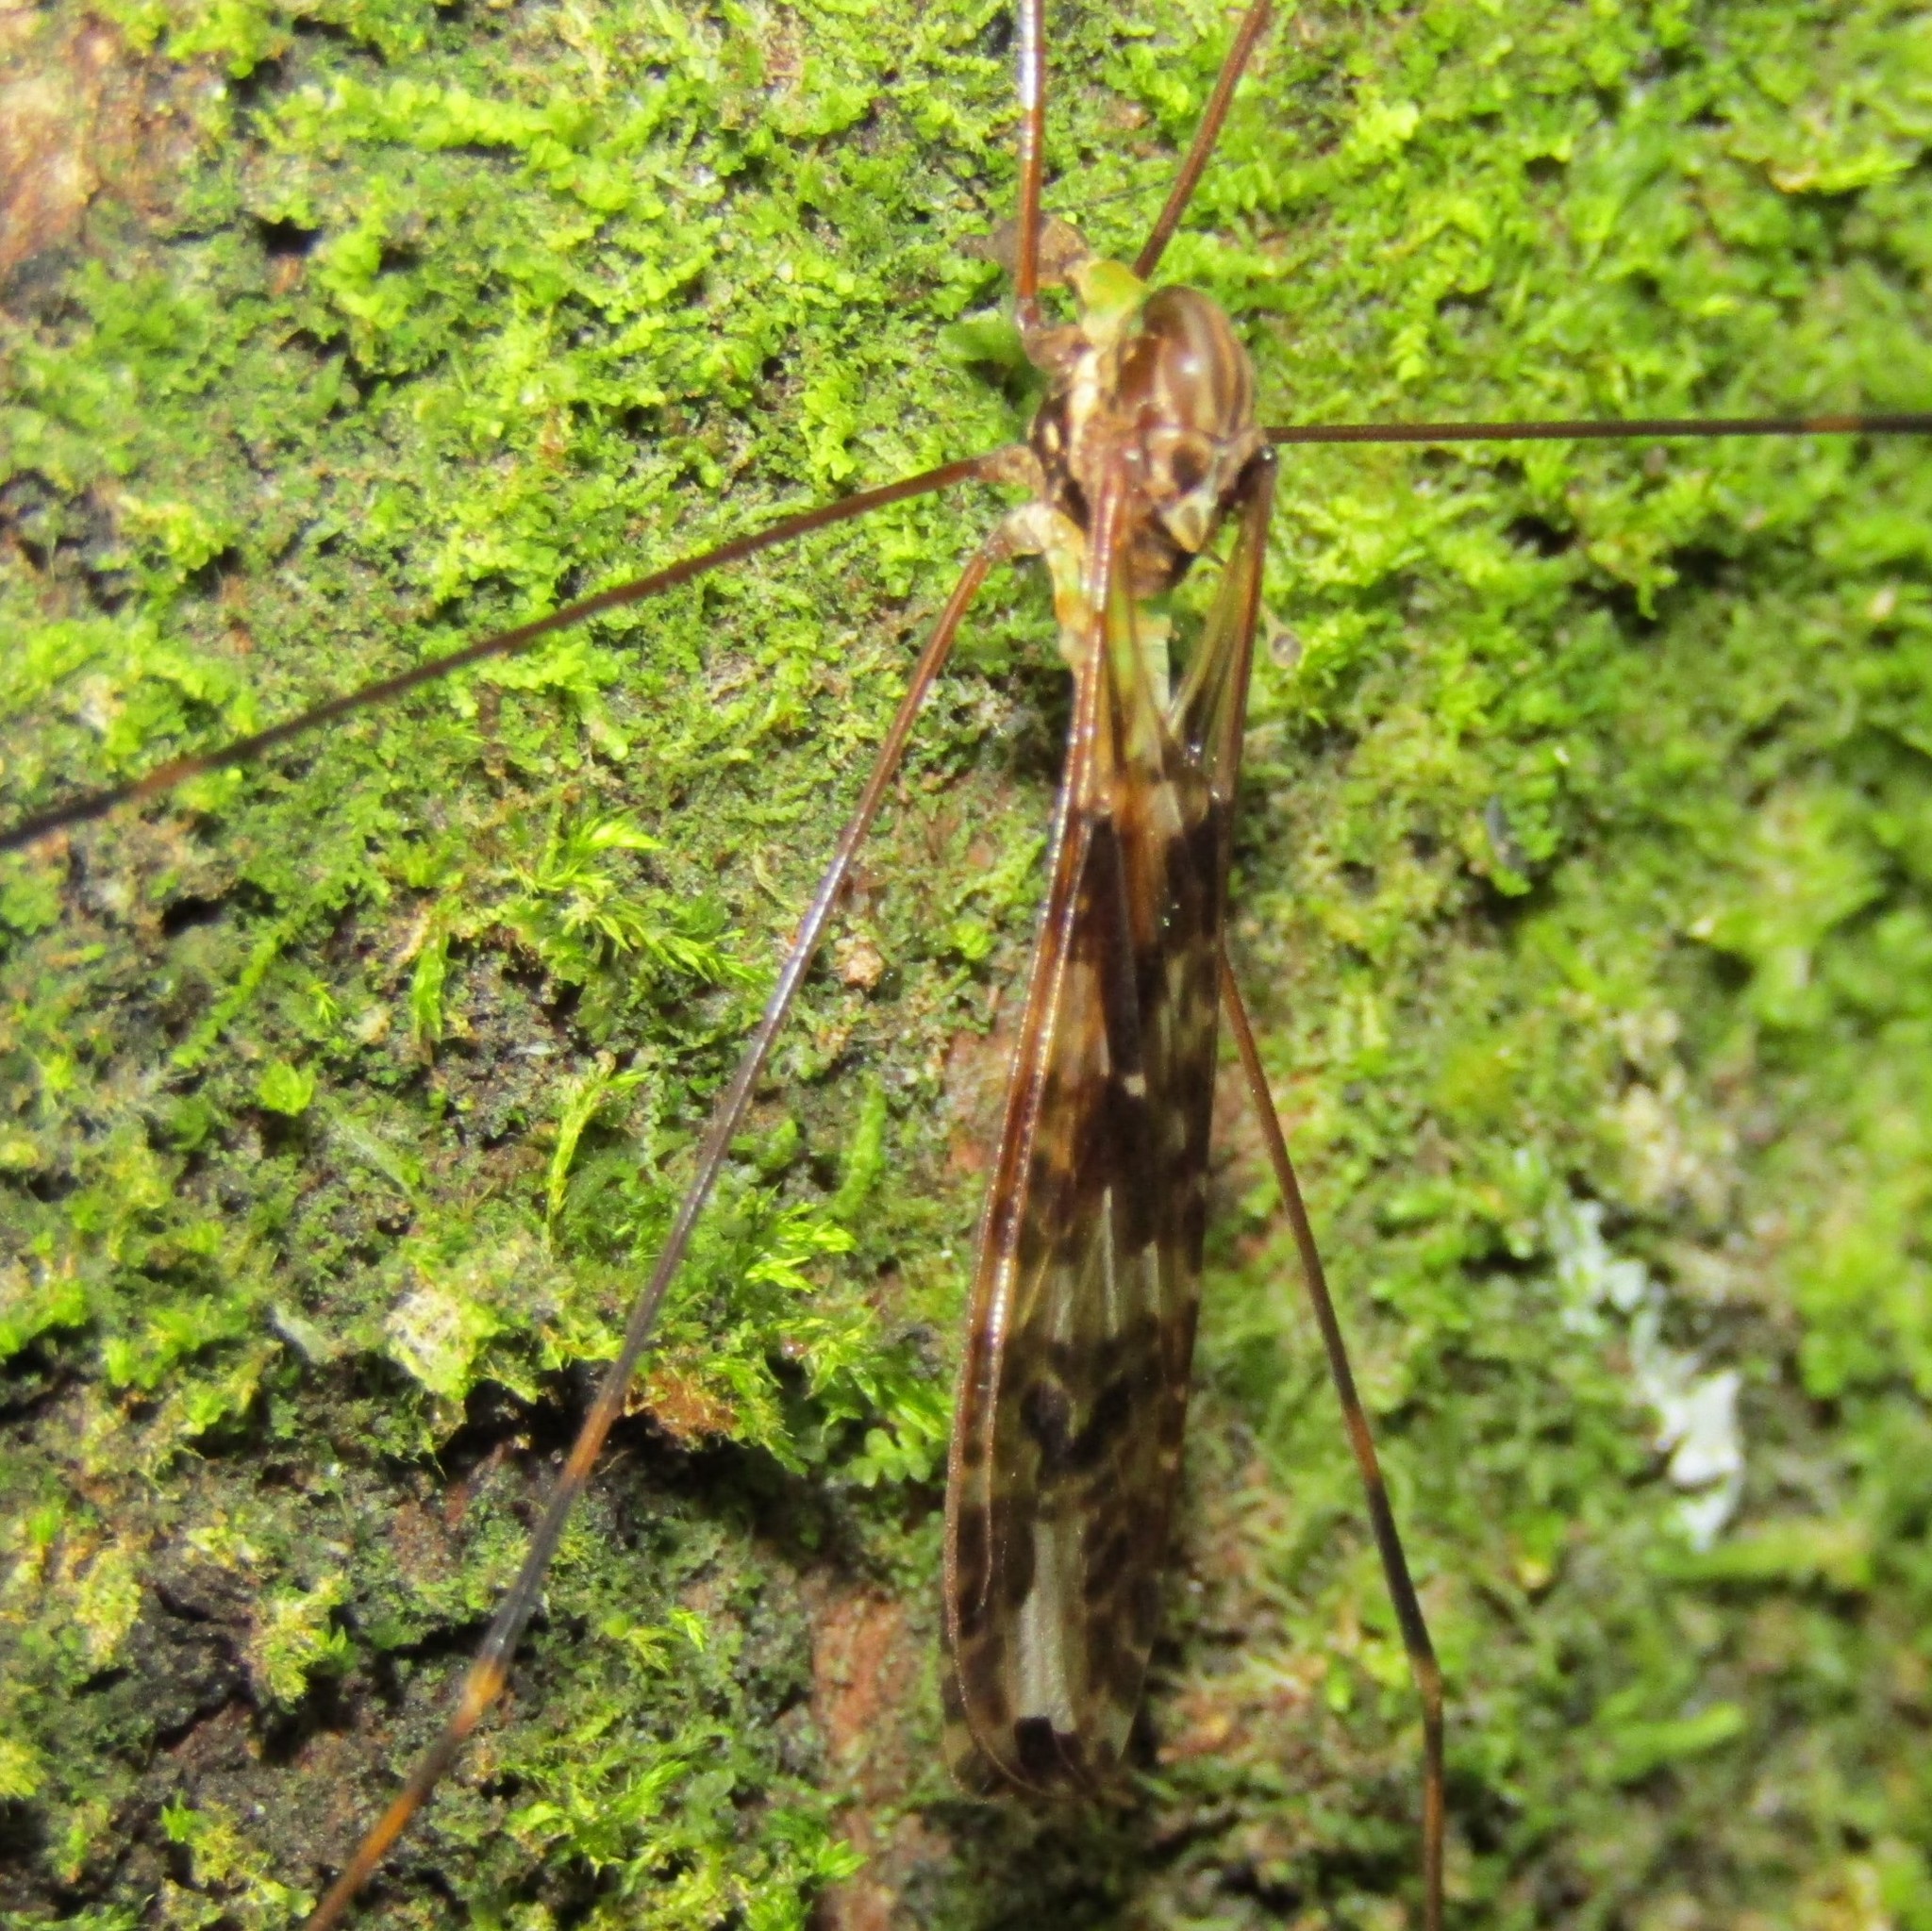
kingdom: Animalia
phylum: Arthropoda
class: Insecta
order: Diptera
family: Limoniidae
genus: Discobola
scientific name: Discobola dohrni
